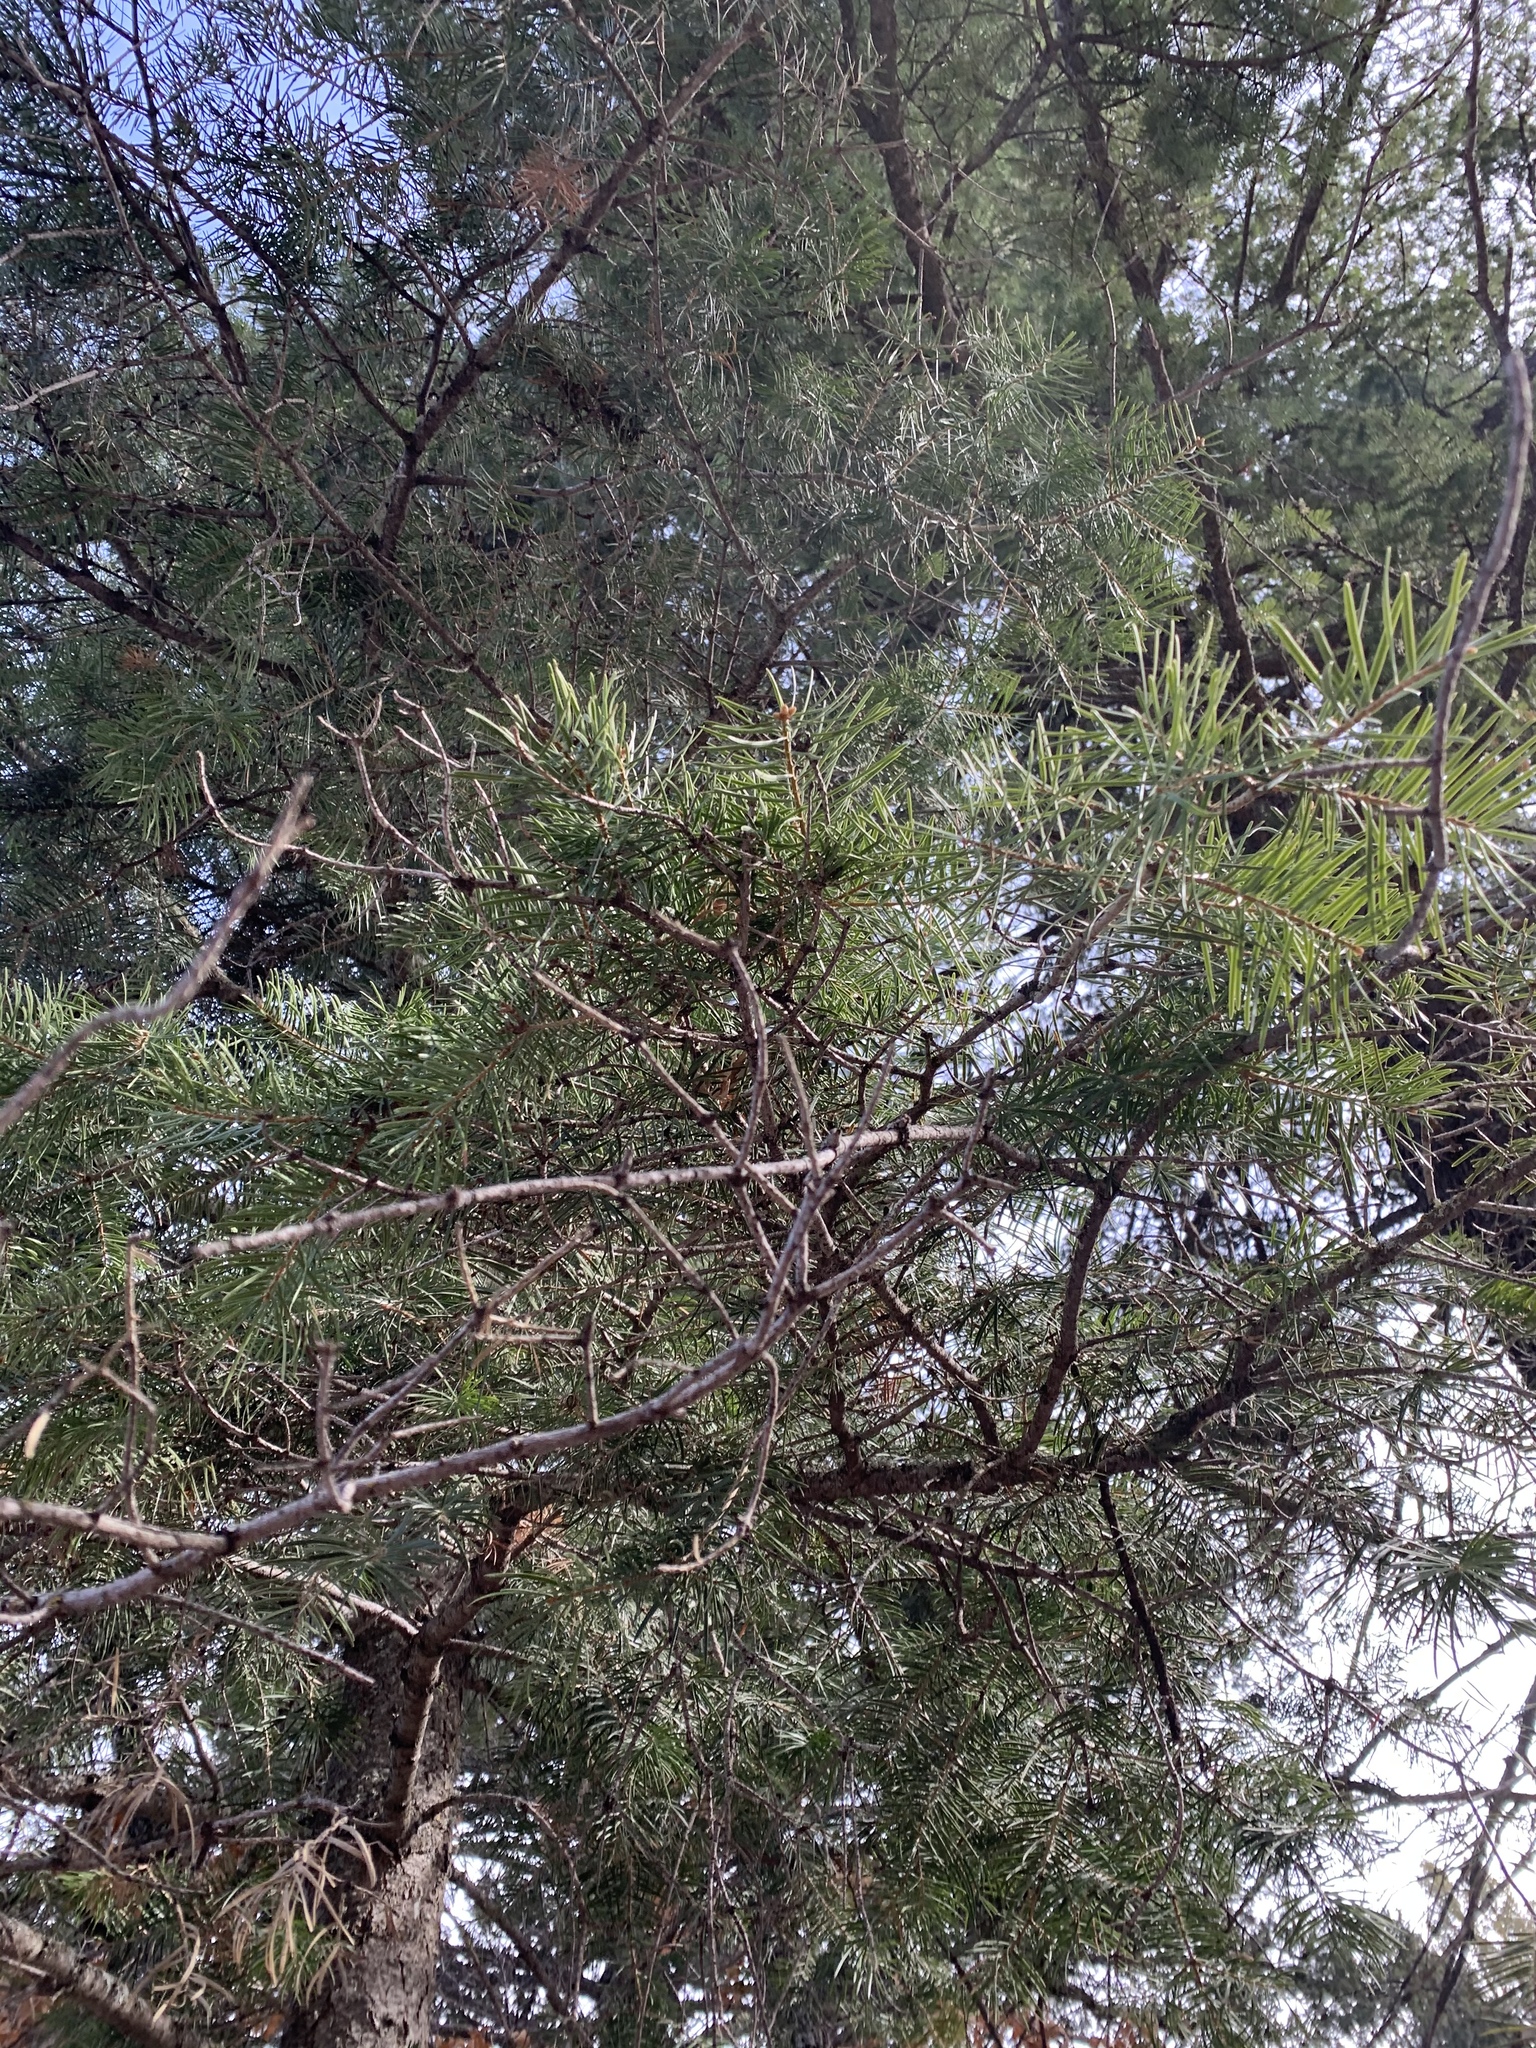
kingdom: Plantae
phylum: Tracheophyta
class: Pinopsida
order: Pinales
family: Pinaceae
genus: Abies
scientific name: Abies concolor
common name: Colorado fir
